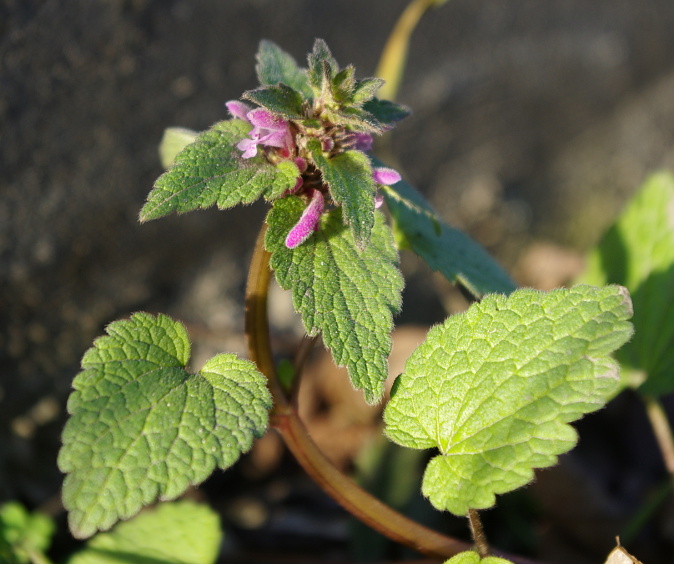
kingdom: Plantae
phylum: Tracheophyta
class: Magnoliopsida
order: Lamiales
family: Lamiaceae
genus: Lamium
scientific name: Lamium purpureum
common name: Red dead-nettle
